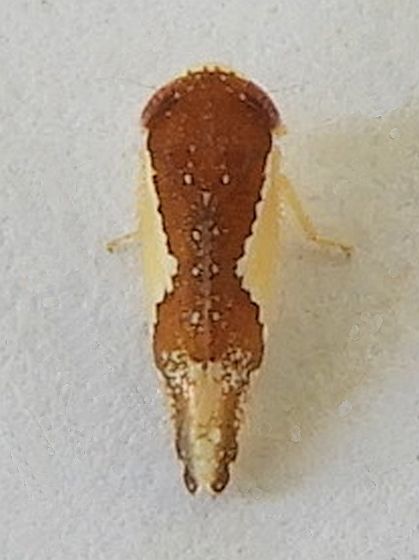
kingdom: Animalia
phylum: Arthropoda
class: Insecta
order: Hemiptera
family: Cicadellidae
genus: Norvellina
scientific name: Norvellina pulchella
